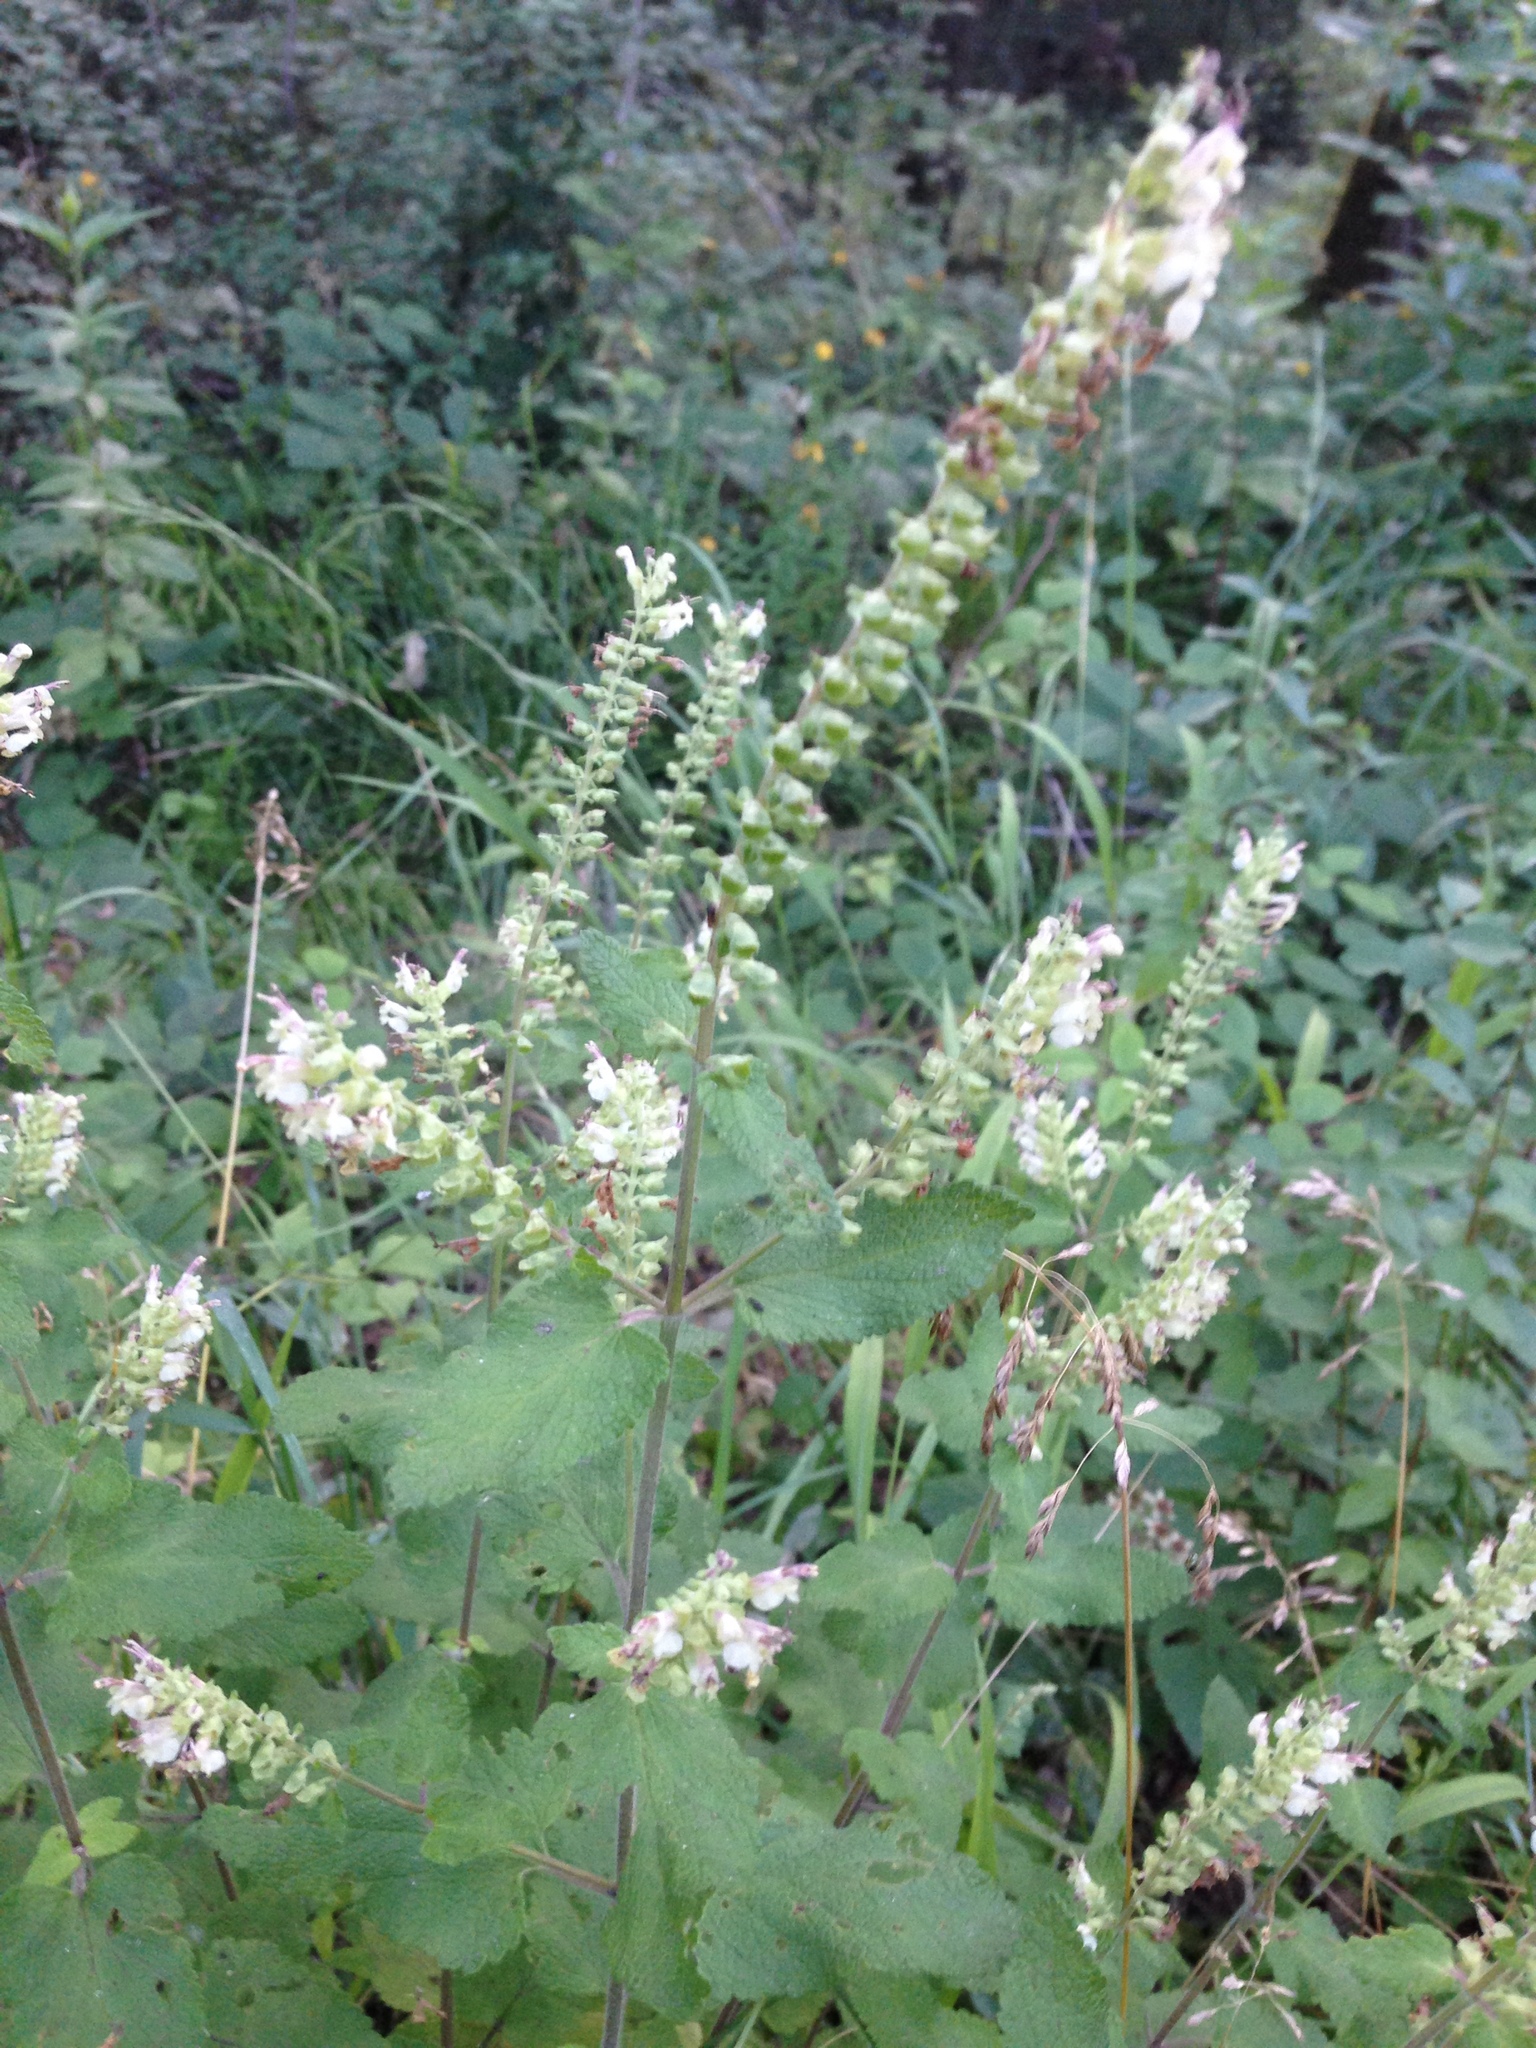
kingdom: Plantae
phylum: Tracheophyta
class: Magnoliopsida
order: Lamiales
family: Lamiaceae
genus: Teucrium
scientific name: Teucrium scorodonia
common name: Woodland germander
